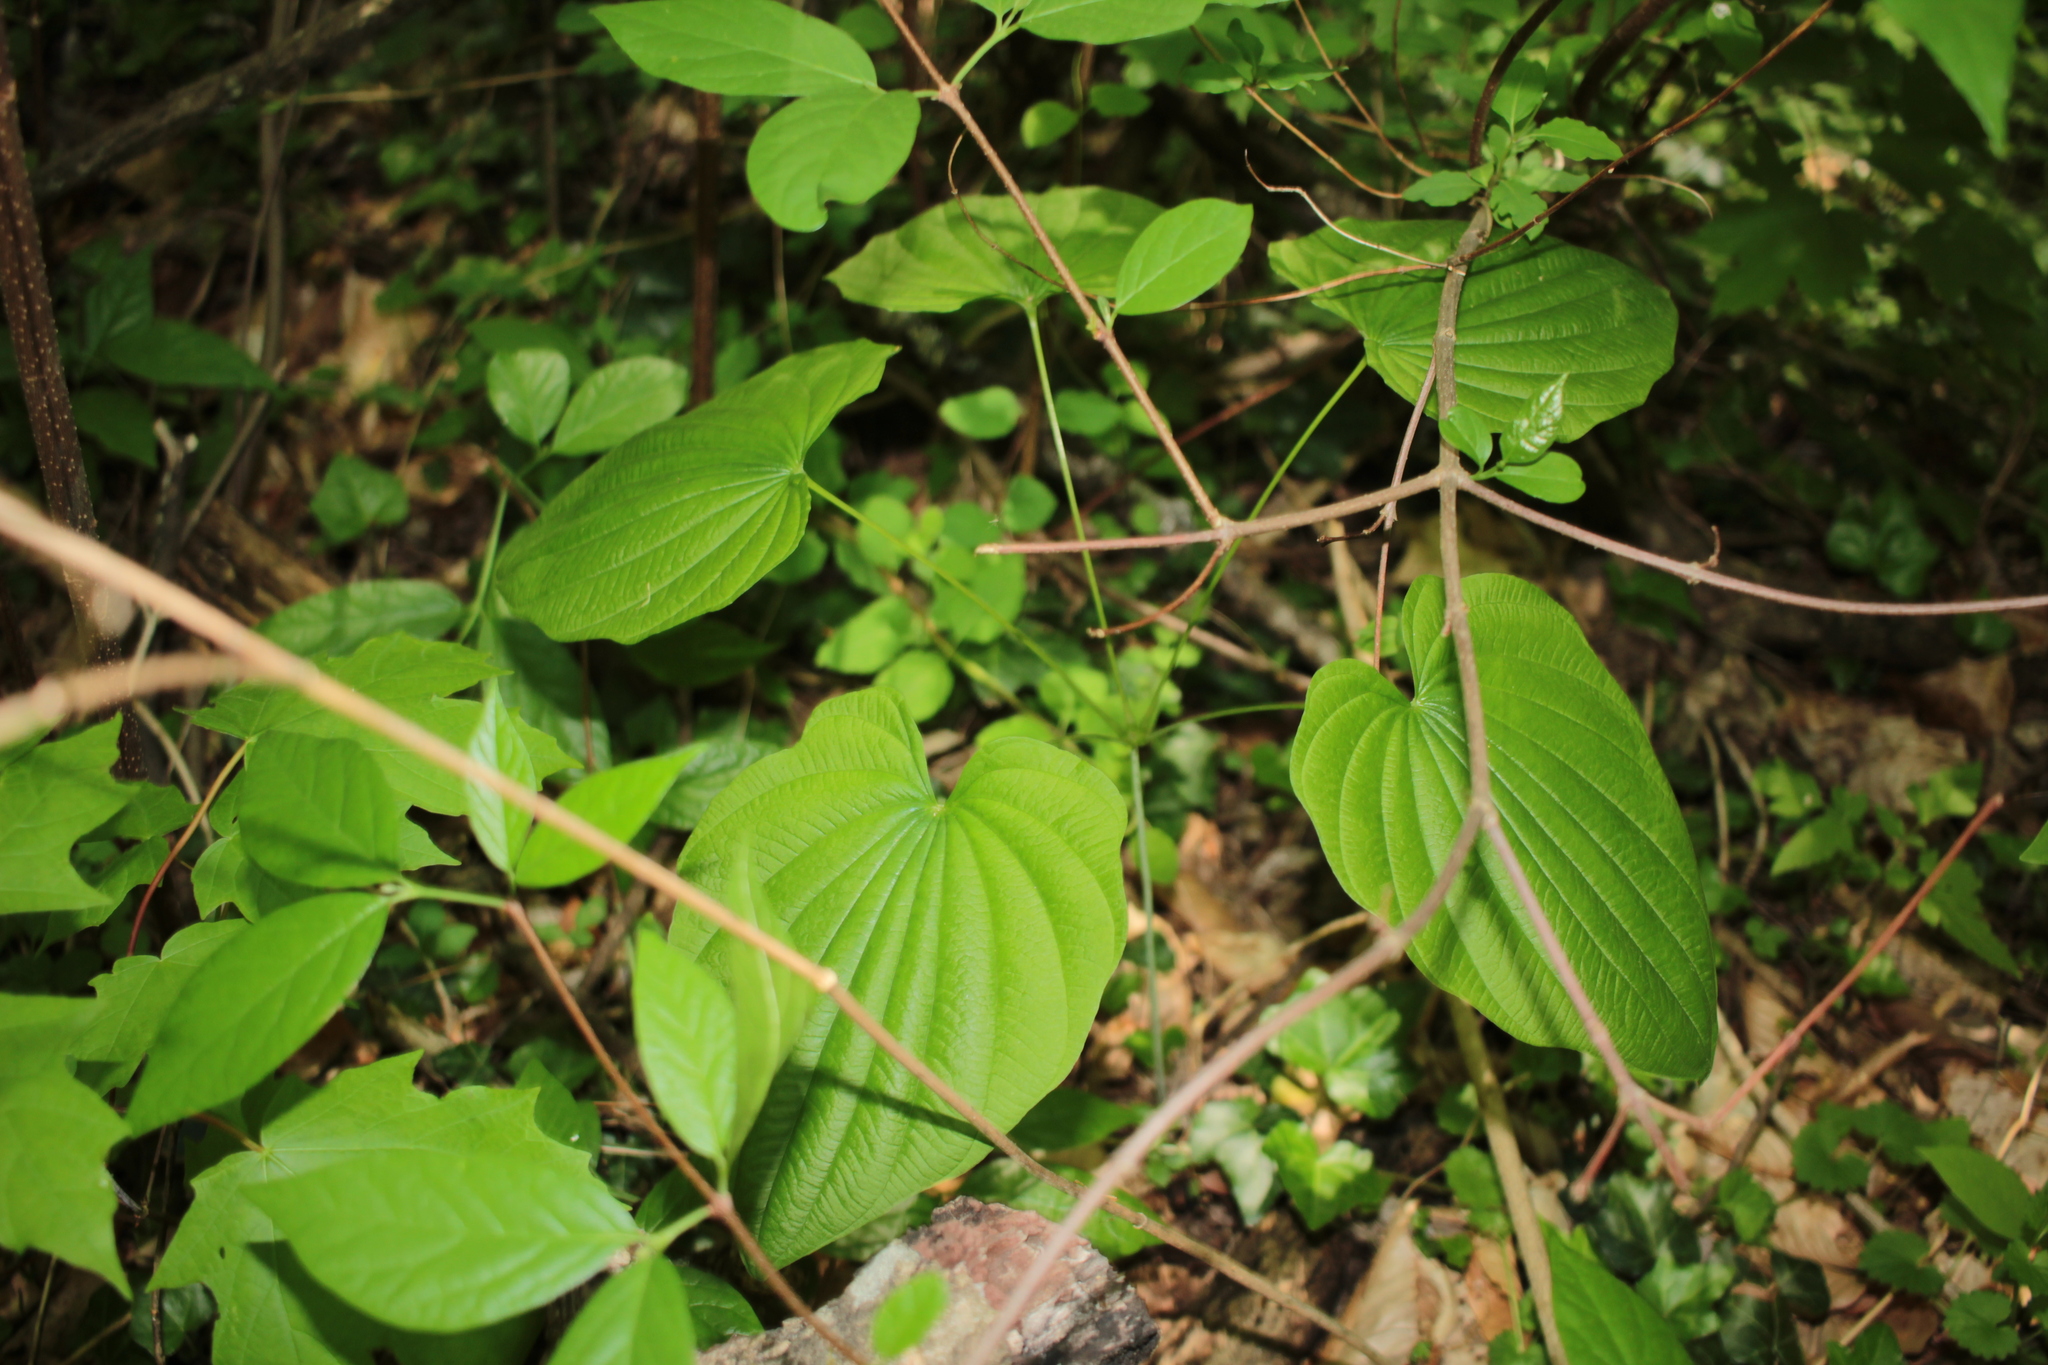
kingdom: Plantae
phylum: Tracheophyta
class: Liliopsida
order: Dioscoreales
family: Dioscoreaceae
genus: Dioscorea
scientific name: Dioscorea villosa
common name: Wild yam
